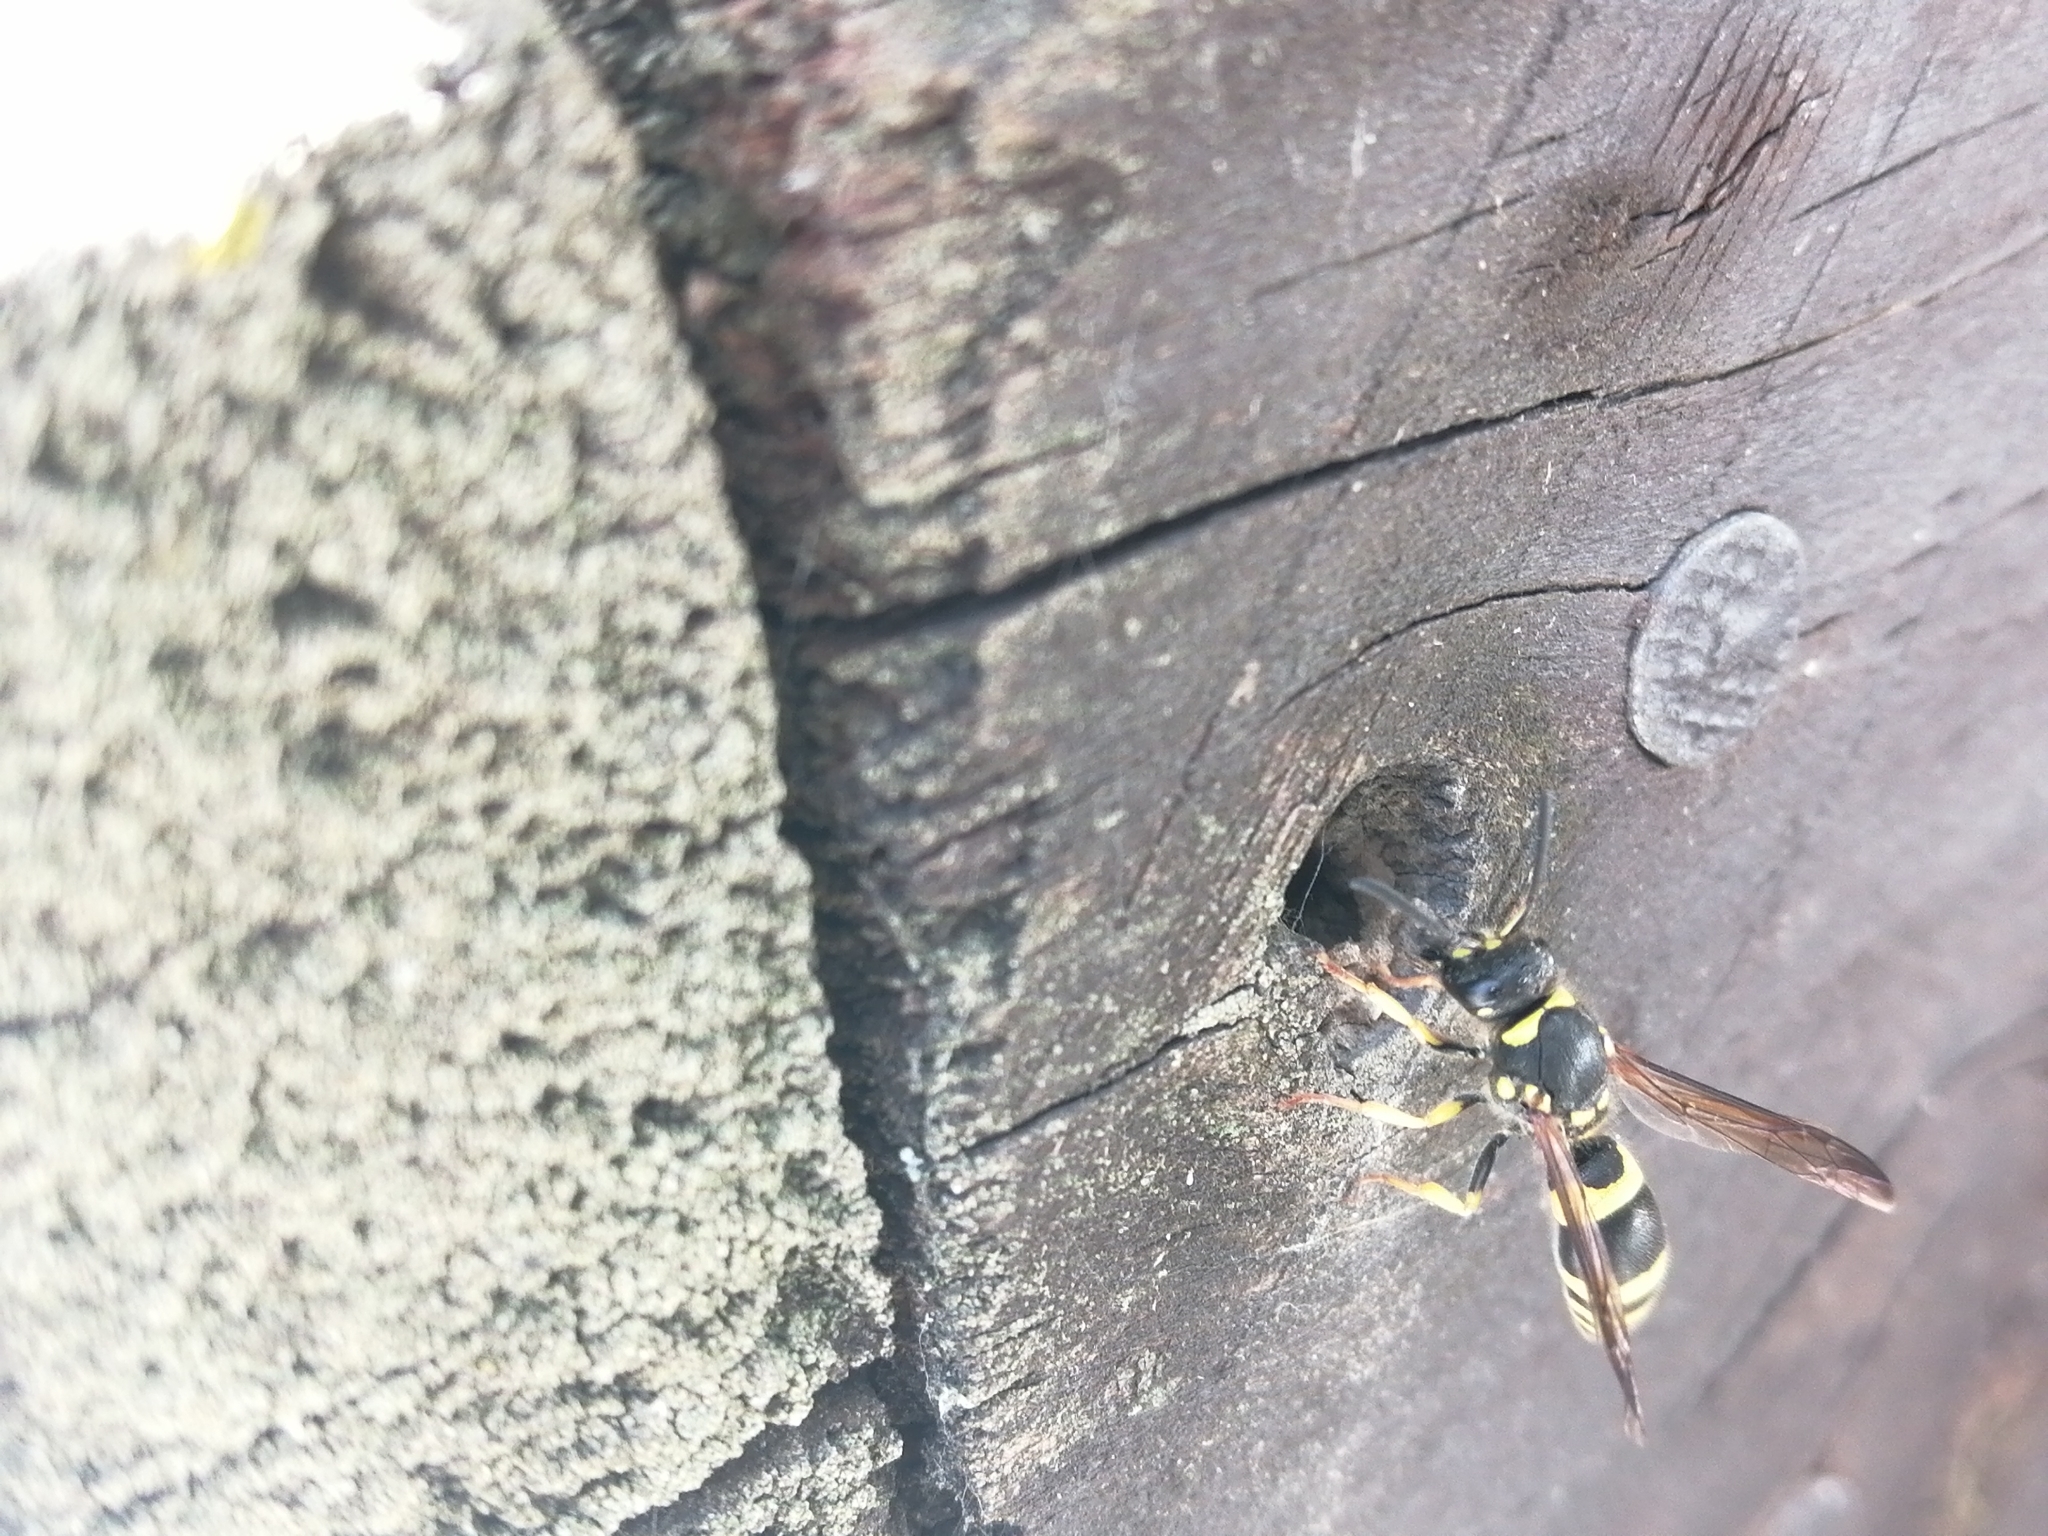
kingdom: Animalia
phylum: Arthropoda
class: Insecta
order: Hymenoptera
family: Vespidae
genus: Ancistrocerus
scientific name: Ancistrocerus gazella
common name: European tube wasp
